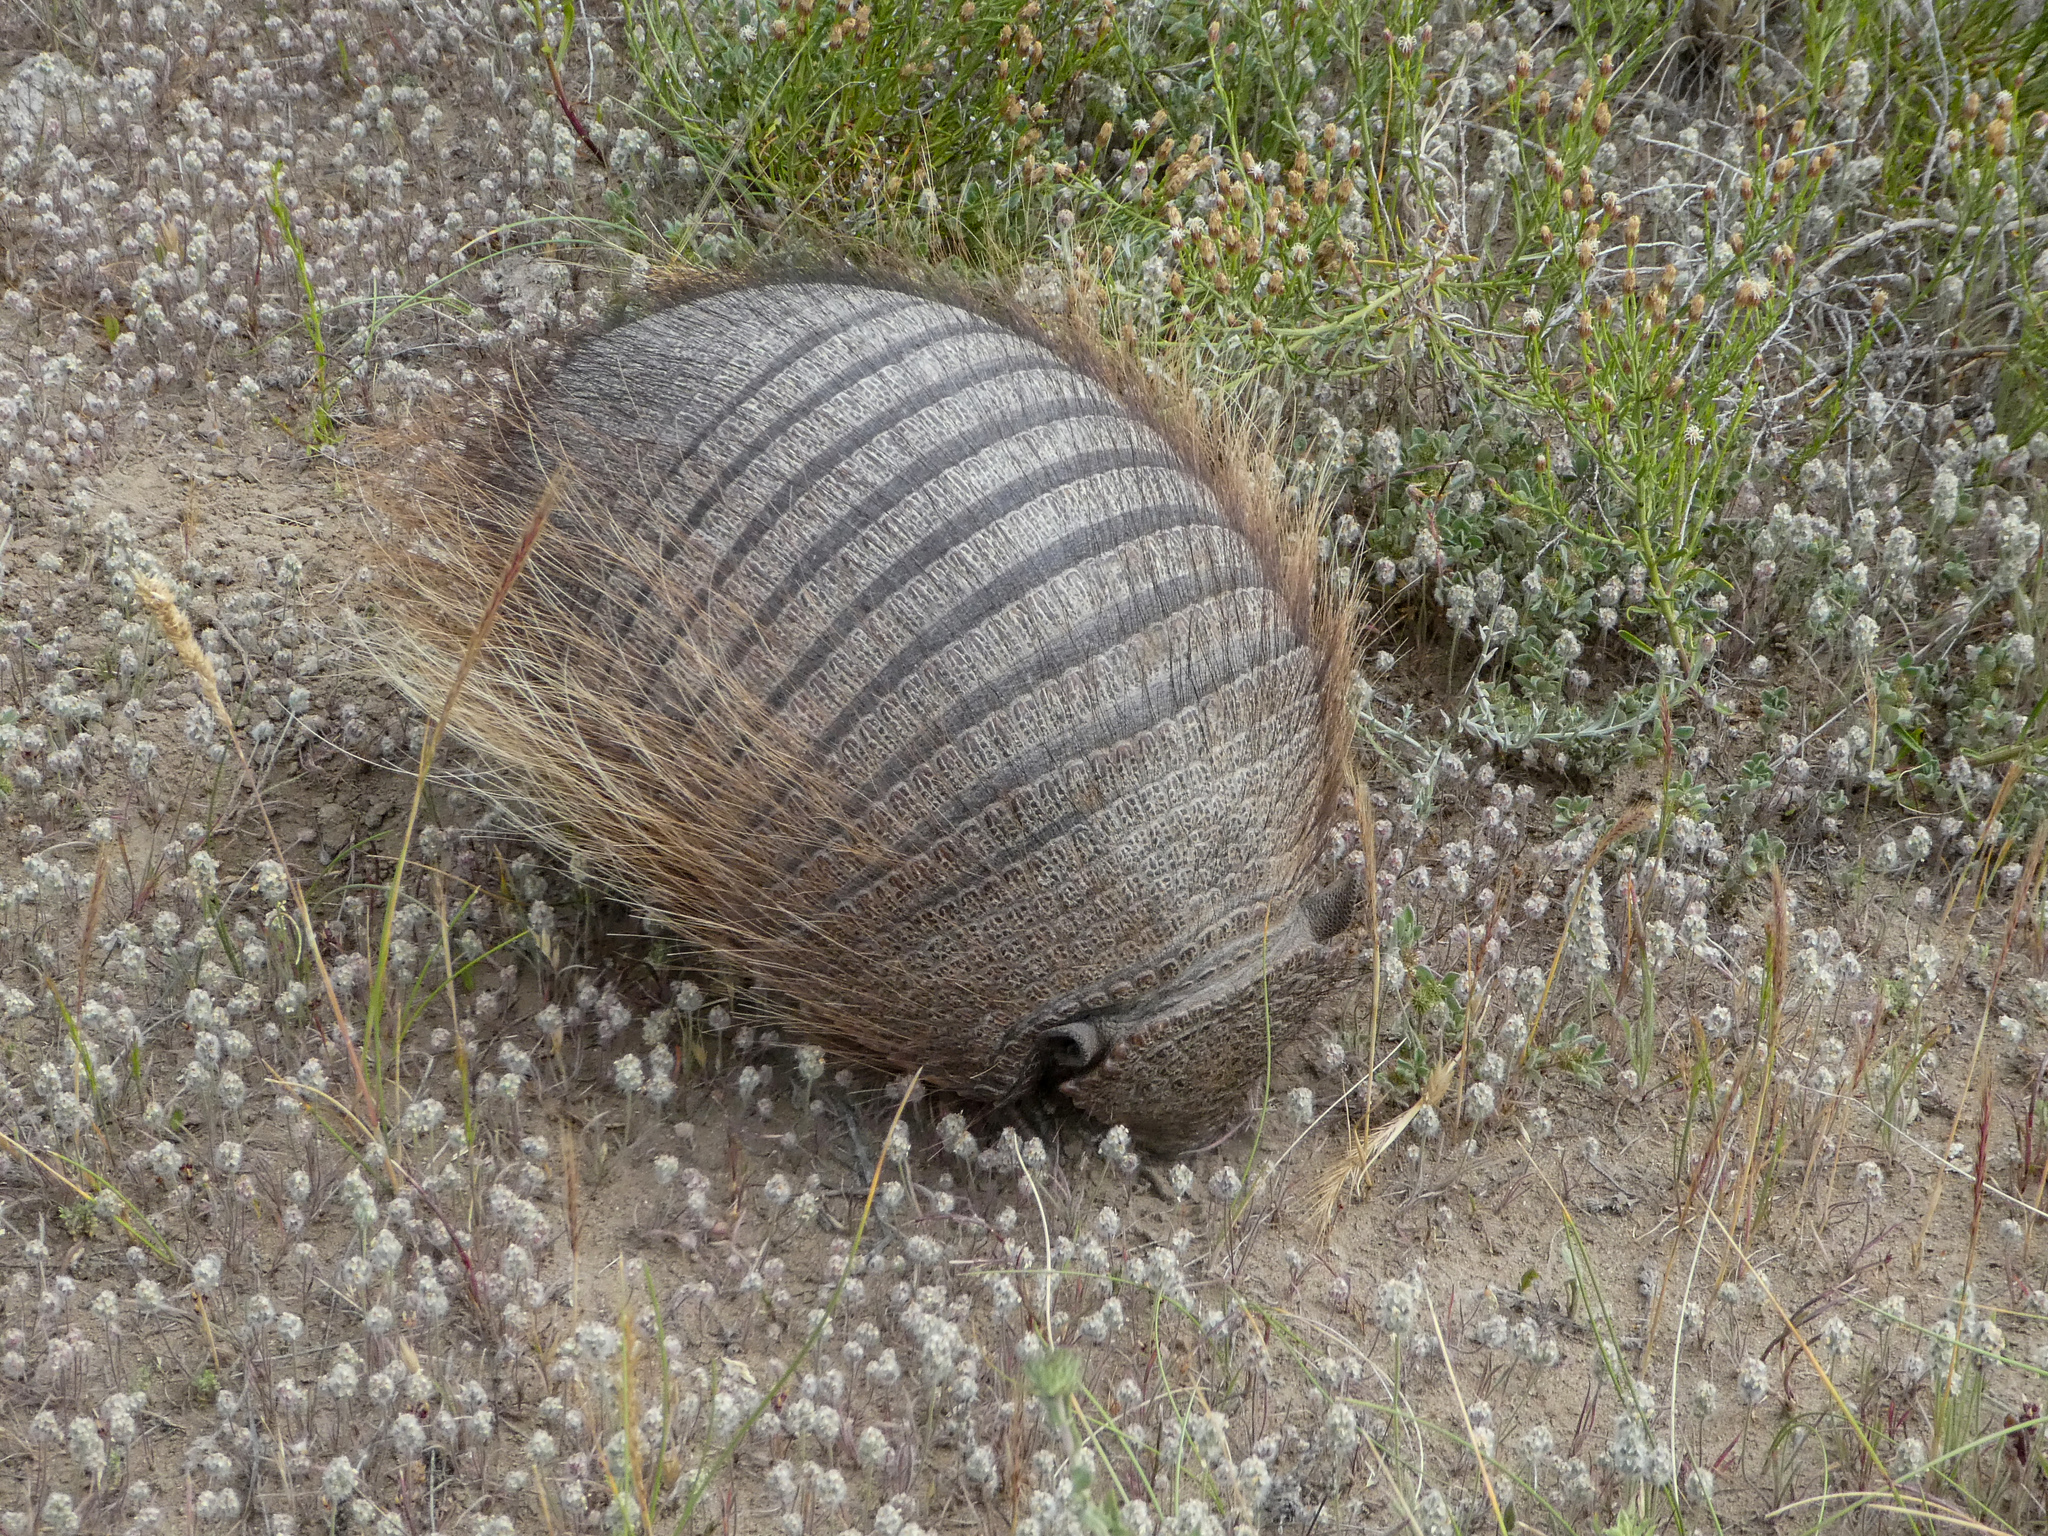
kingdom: Animalia
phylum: Chordata
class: Mammalia
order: Cingulata
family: Dasypodidae
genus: Chaetophractus
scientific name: Chaetophractus villosus
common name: Big hairy armadillo
